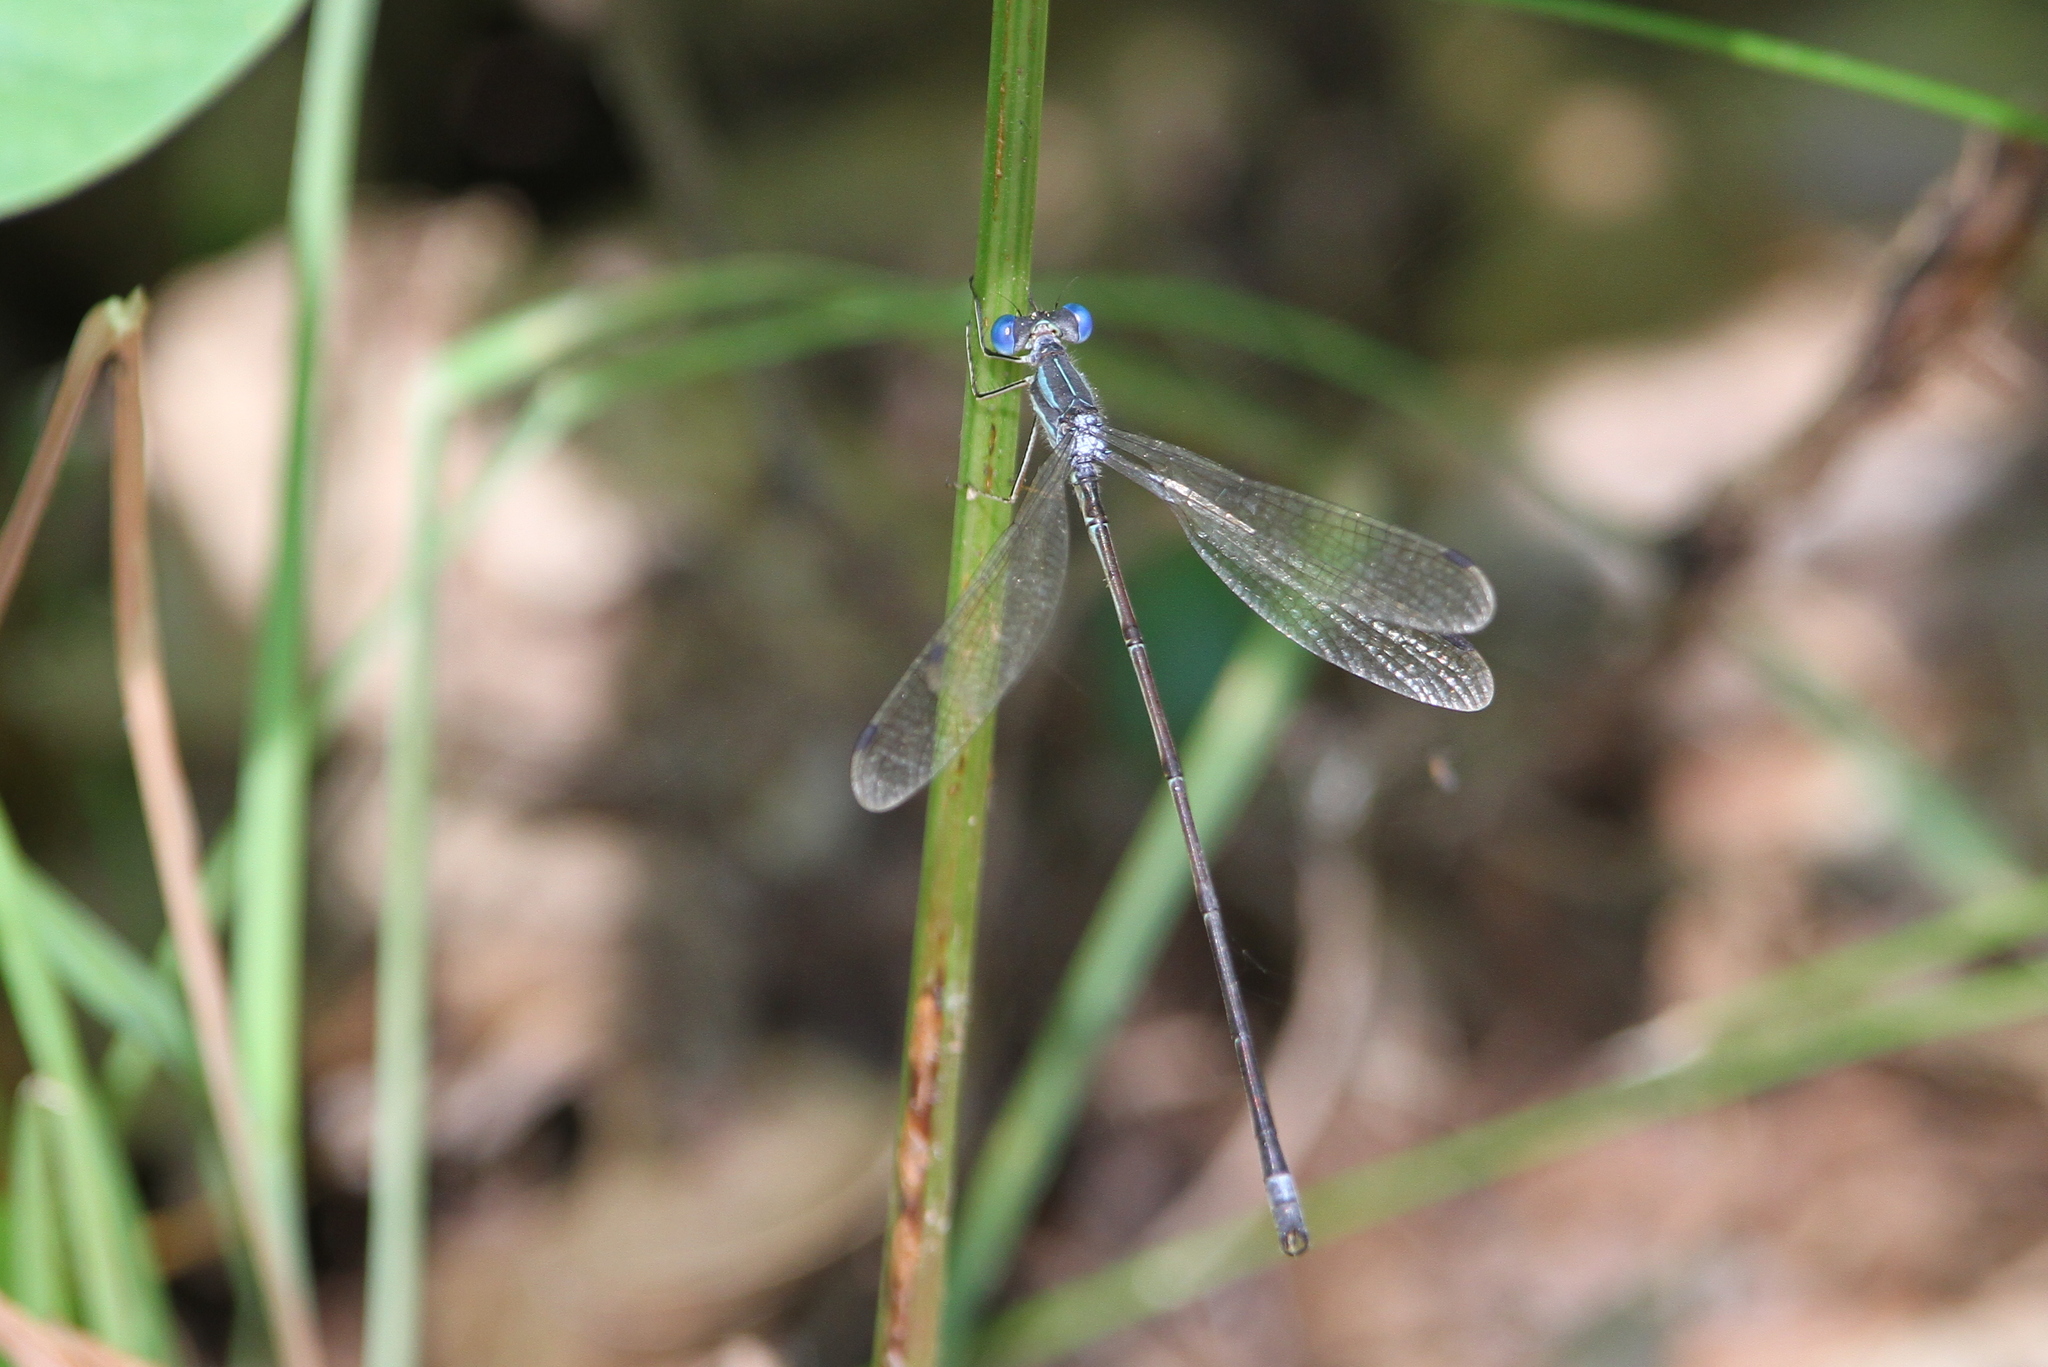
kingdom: Animalia
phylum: Arthropoda
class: Insecta
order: Odonata
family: Lestidae
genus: Lestes
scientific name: Lestes rectangularis
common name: Slender spreadwing
